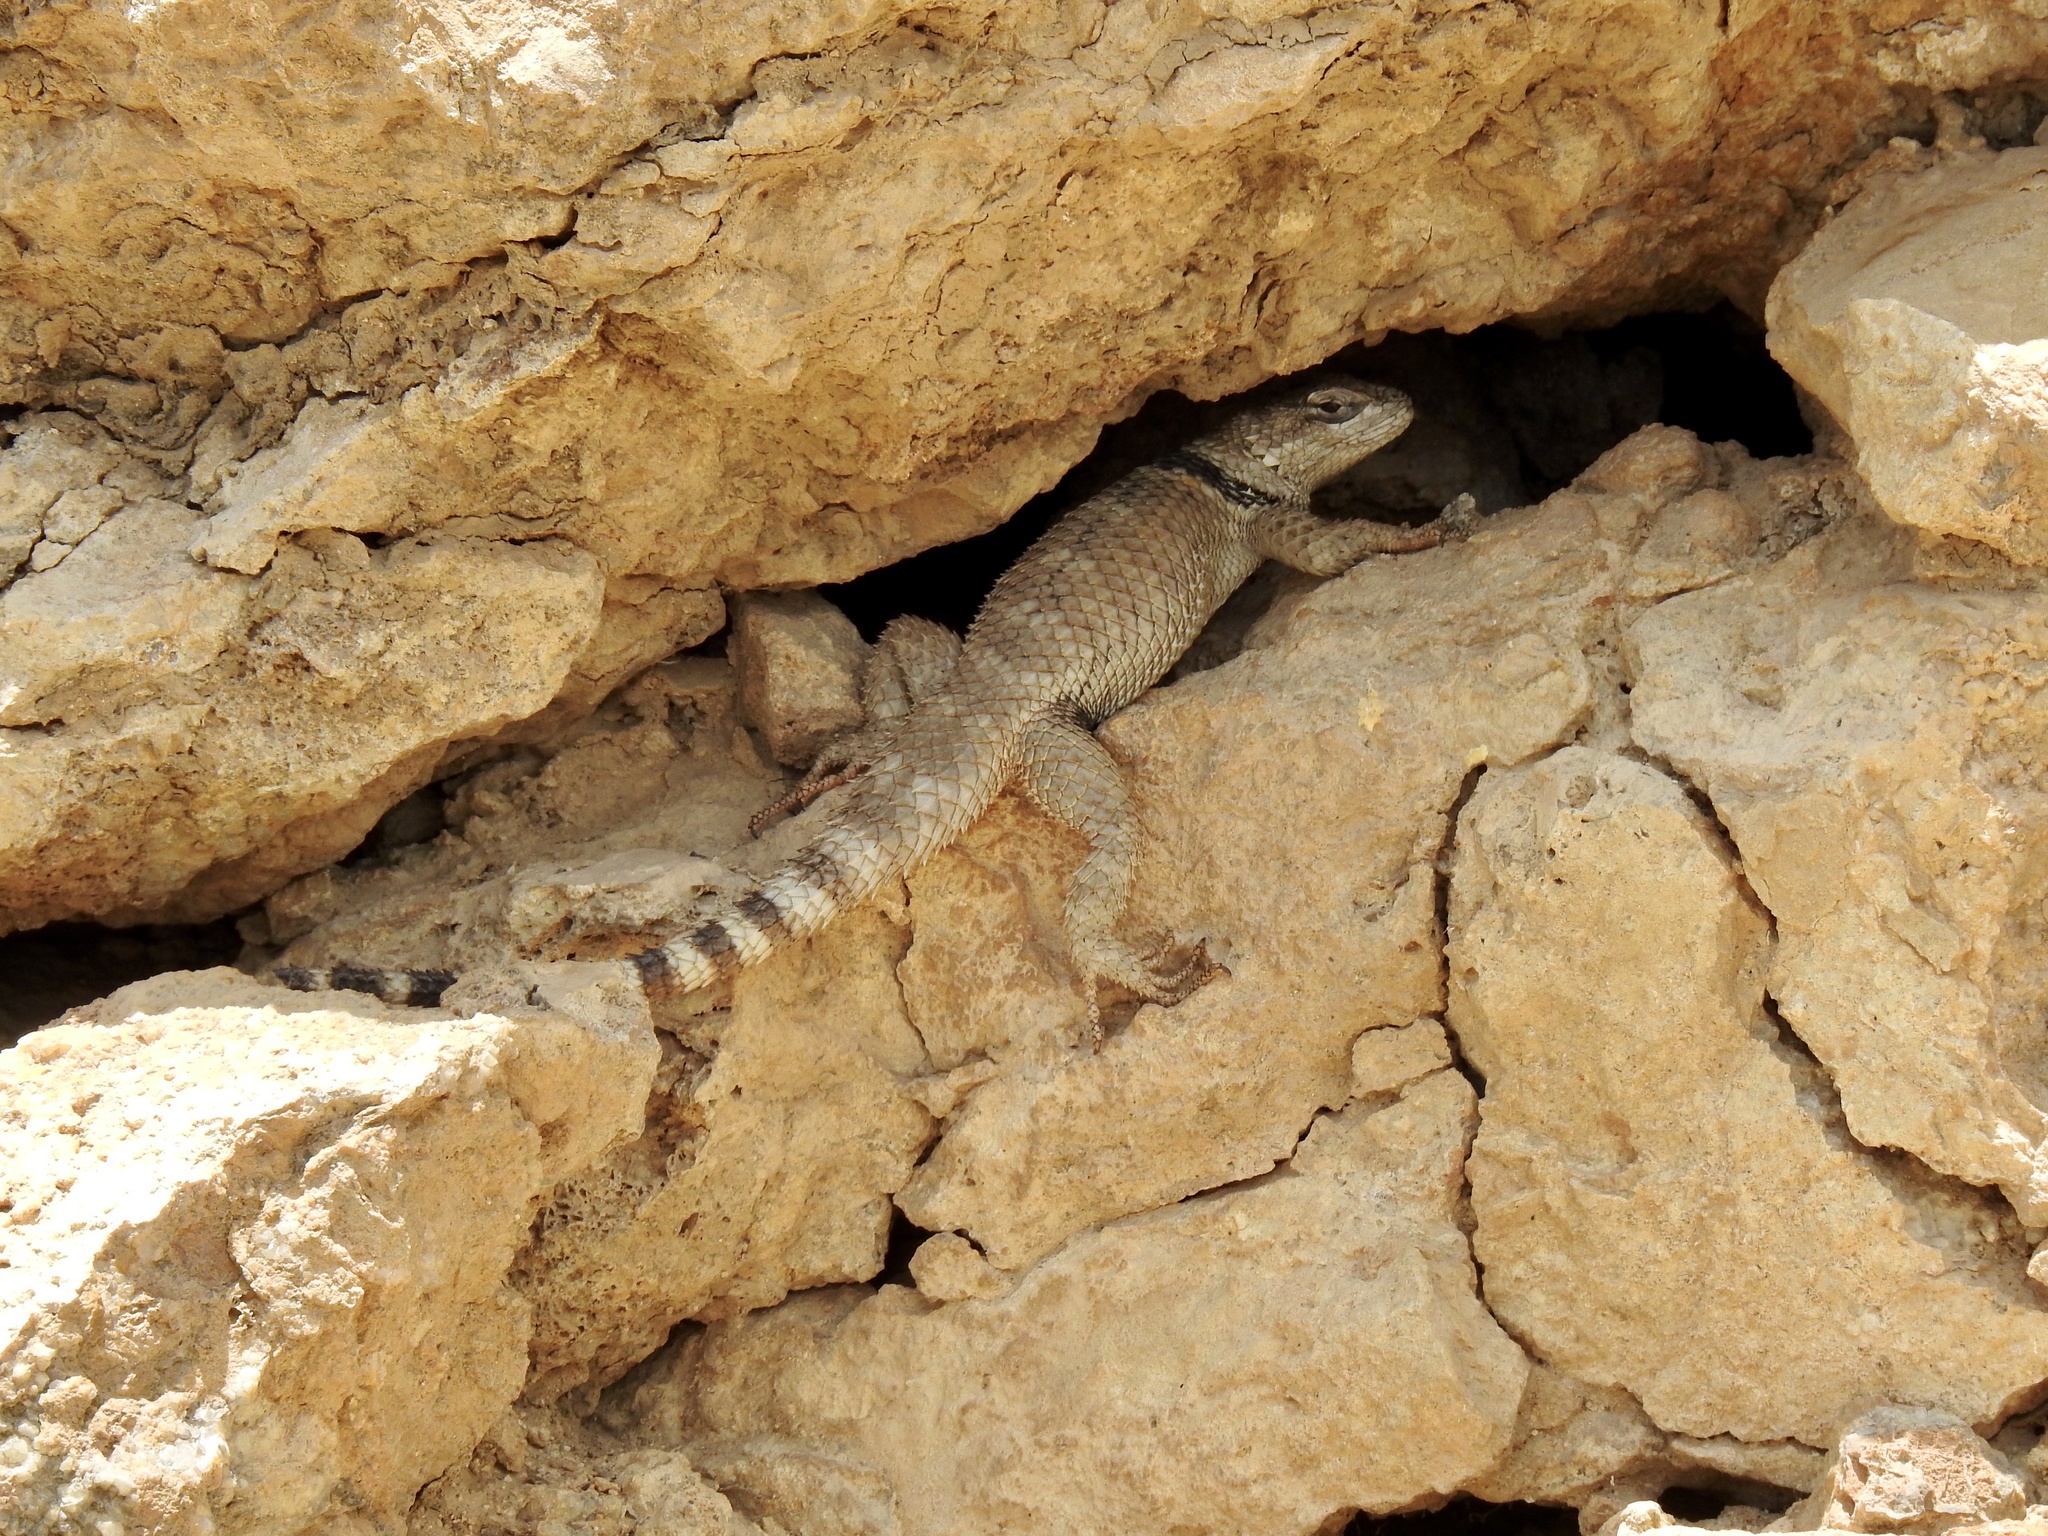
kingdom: Animalia
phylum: Chordata
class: Squamata
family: Phrynosomatidae
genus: Sceloporus
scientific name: Sceloporus poinsettii
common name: Crevice spiny lizard
